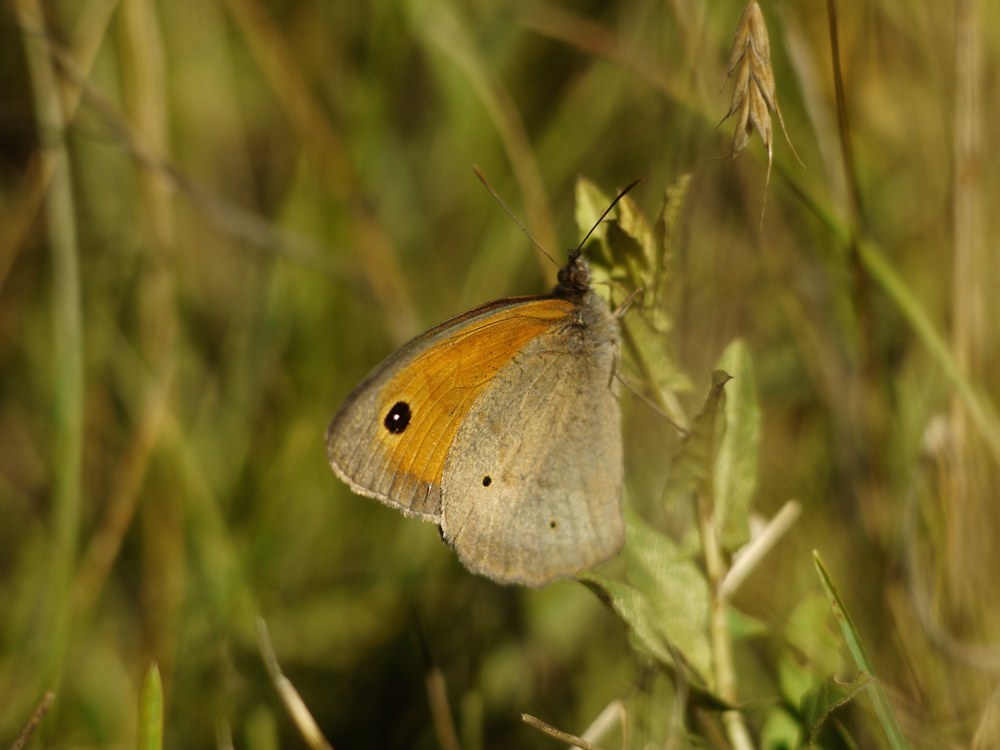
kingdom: Animalia
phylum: Arthropoda
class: Insecta
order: Lepidoptera
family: Nymphalidae
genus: Maniola
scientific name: Maniola jurtina
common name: Meadow brown
